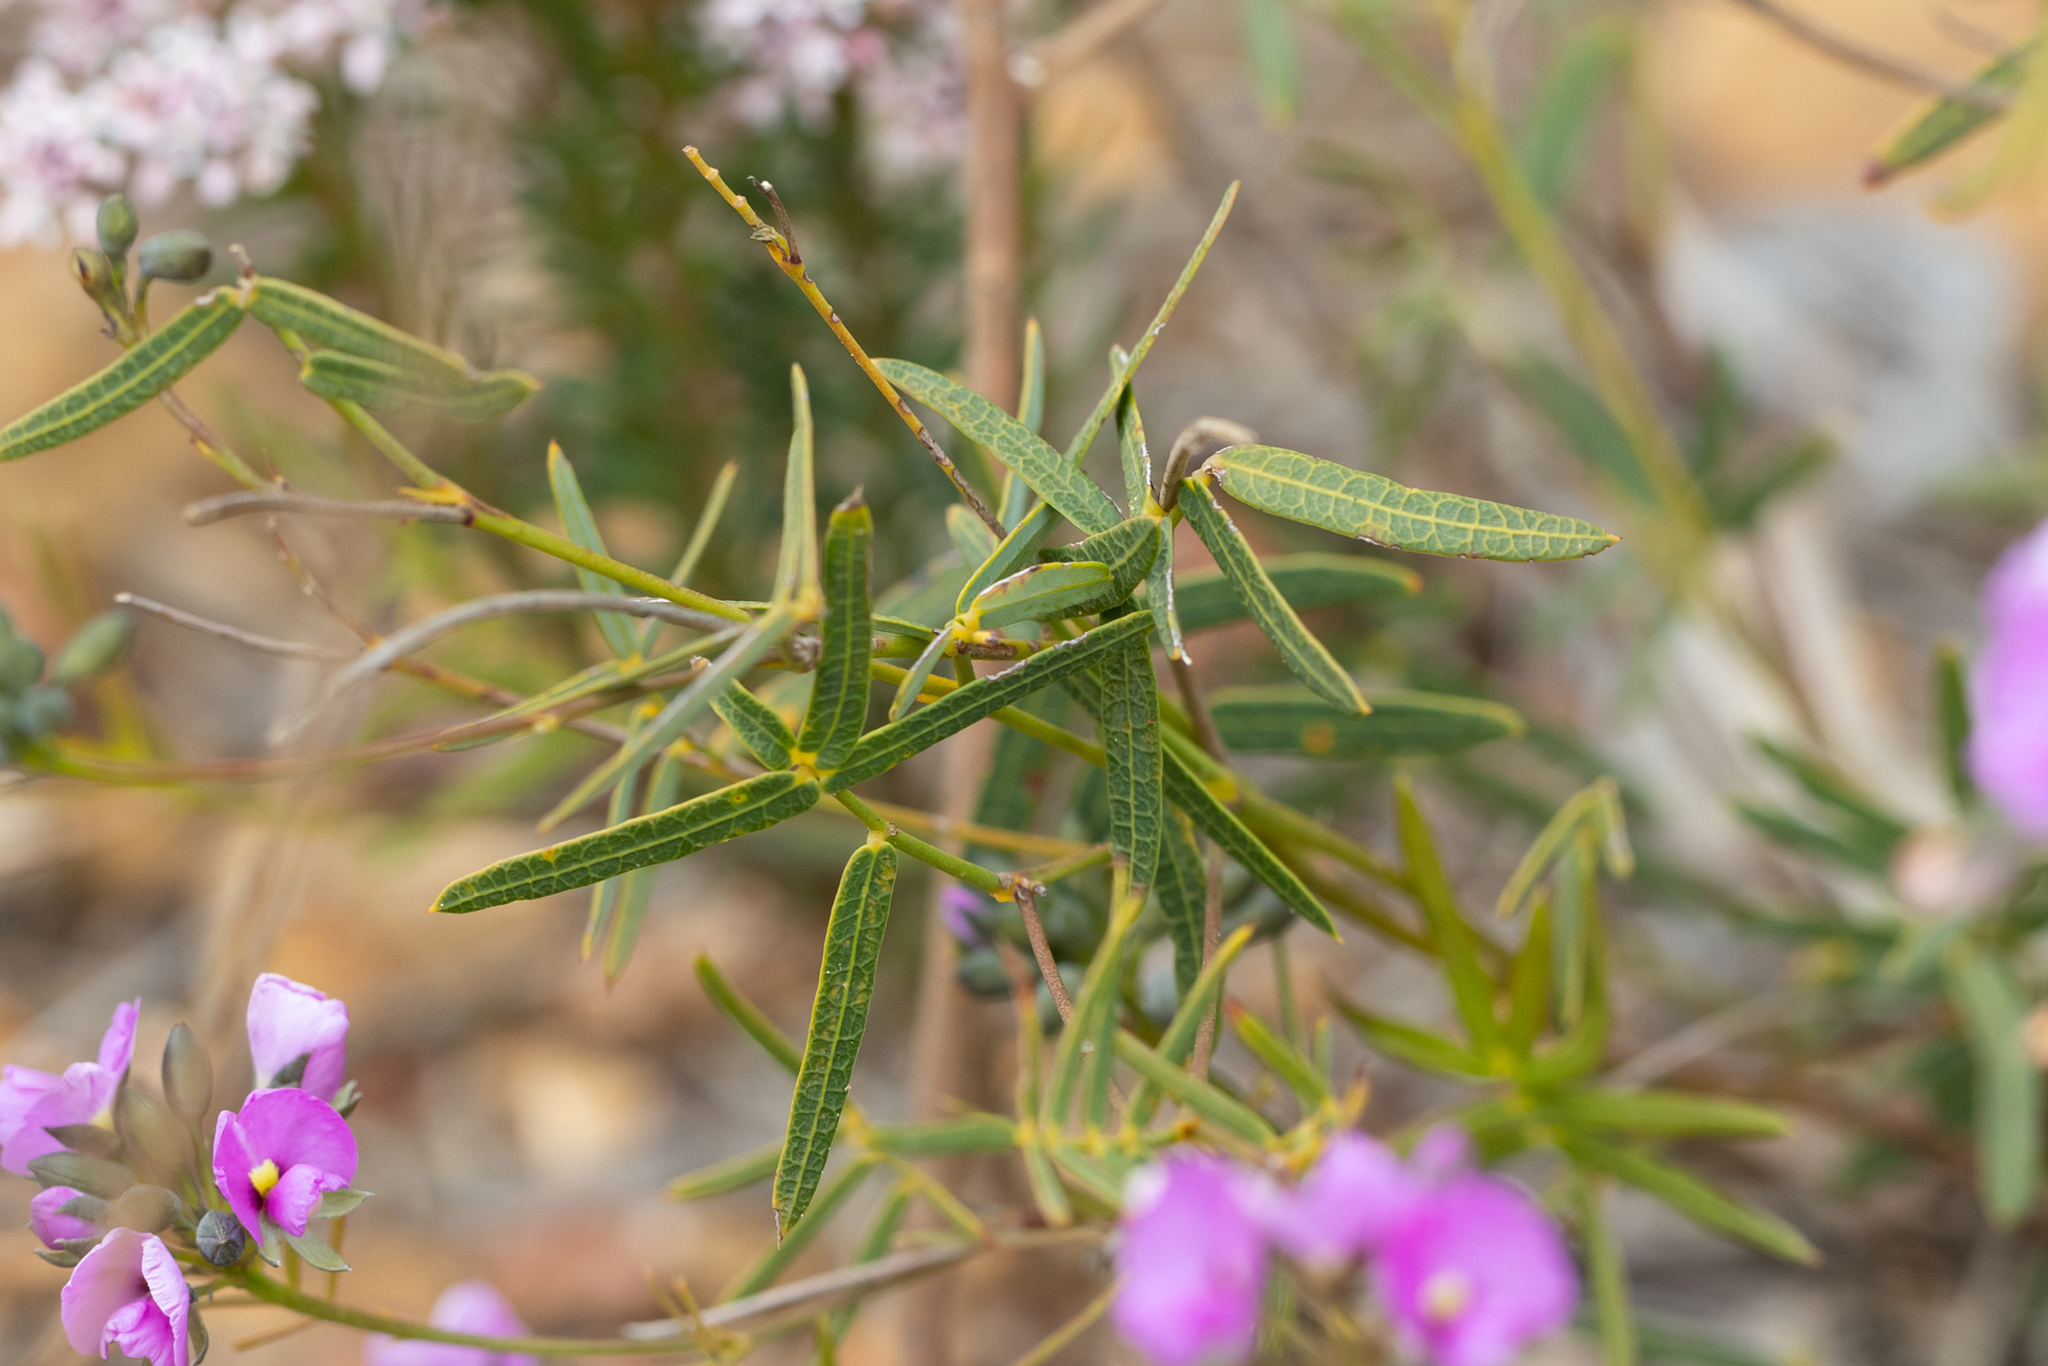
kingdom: Plantae
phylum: Tracheophyta
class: Magnoliopsida
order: Fabales
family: Fabaceae
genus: Gompholobium
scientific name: Gompholobium knightianum
